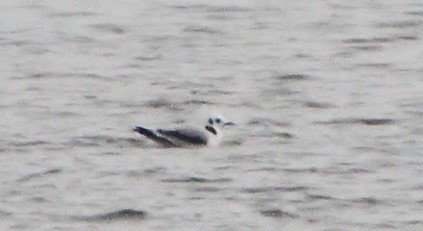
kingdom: Animalia
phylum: Chordata
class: Aves
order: Charadriiformes
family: Laridae
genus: Rissa
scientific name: Rissa tridactyla
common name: Black-legged kittiwake
